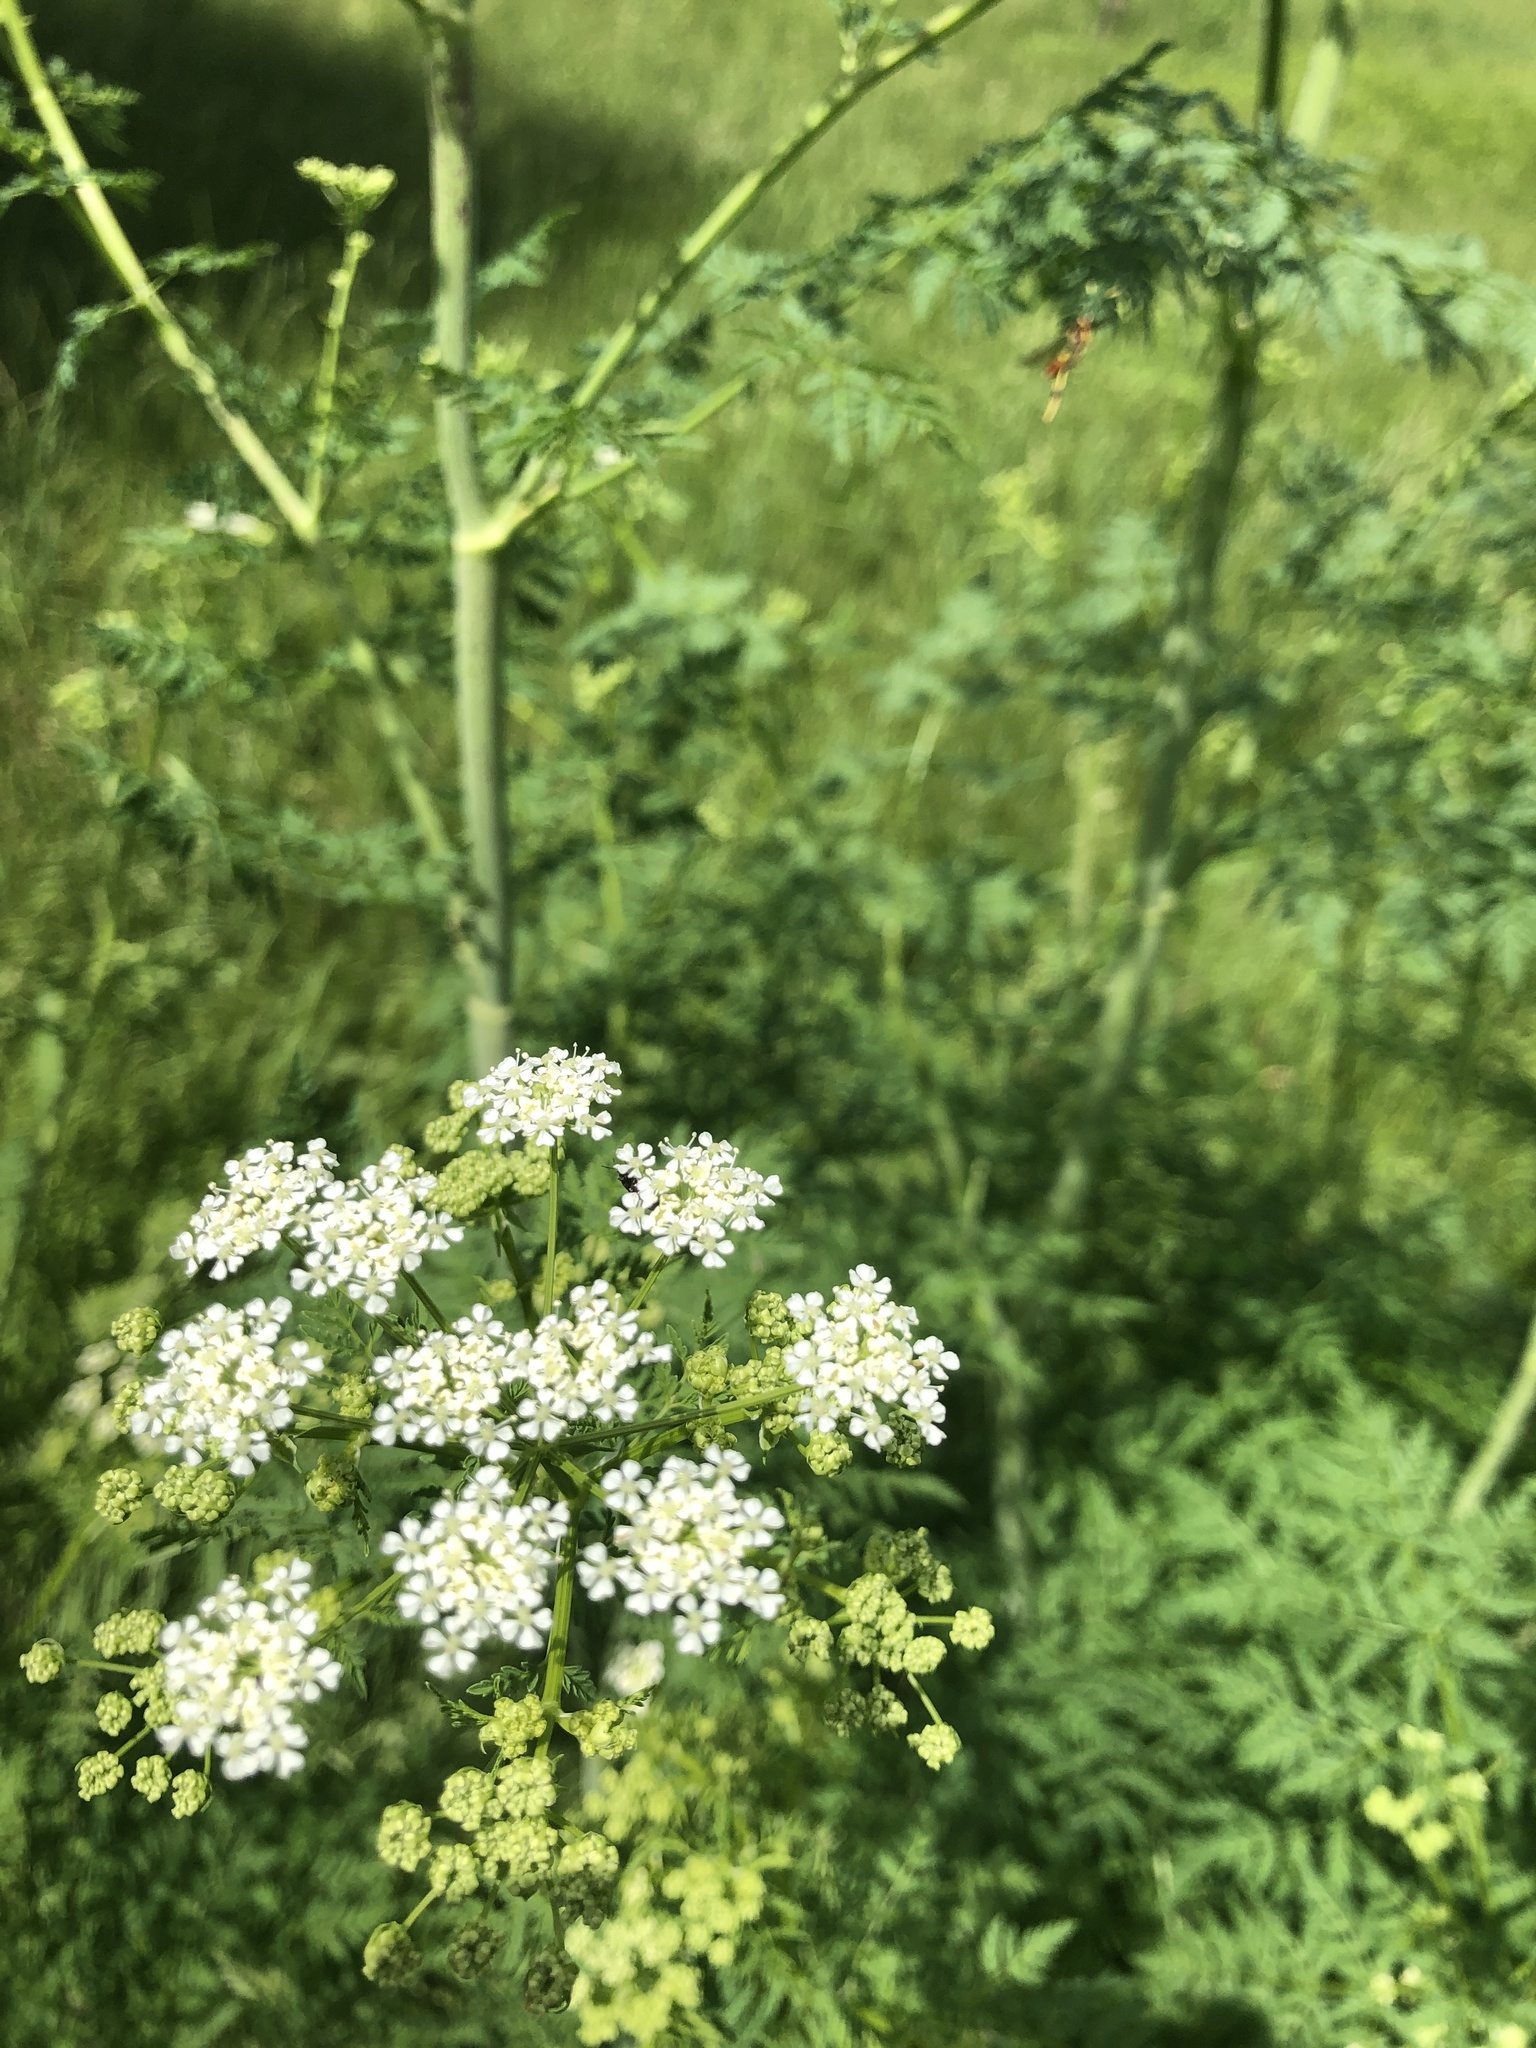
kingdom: Plantae
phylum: Tracheophyta
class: Magnoliopsida
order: Apiales
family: Apiaceae
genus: Conium
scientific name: Conium maculatum
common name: Hemlock
